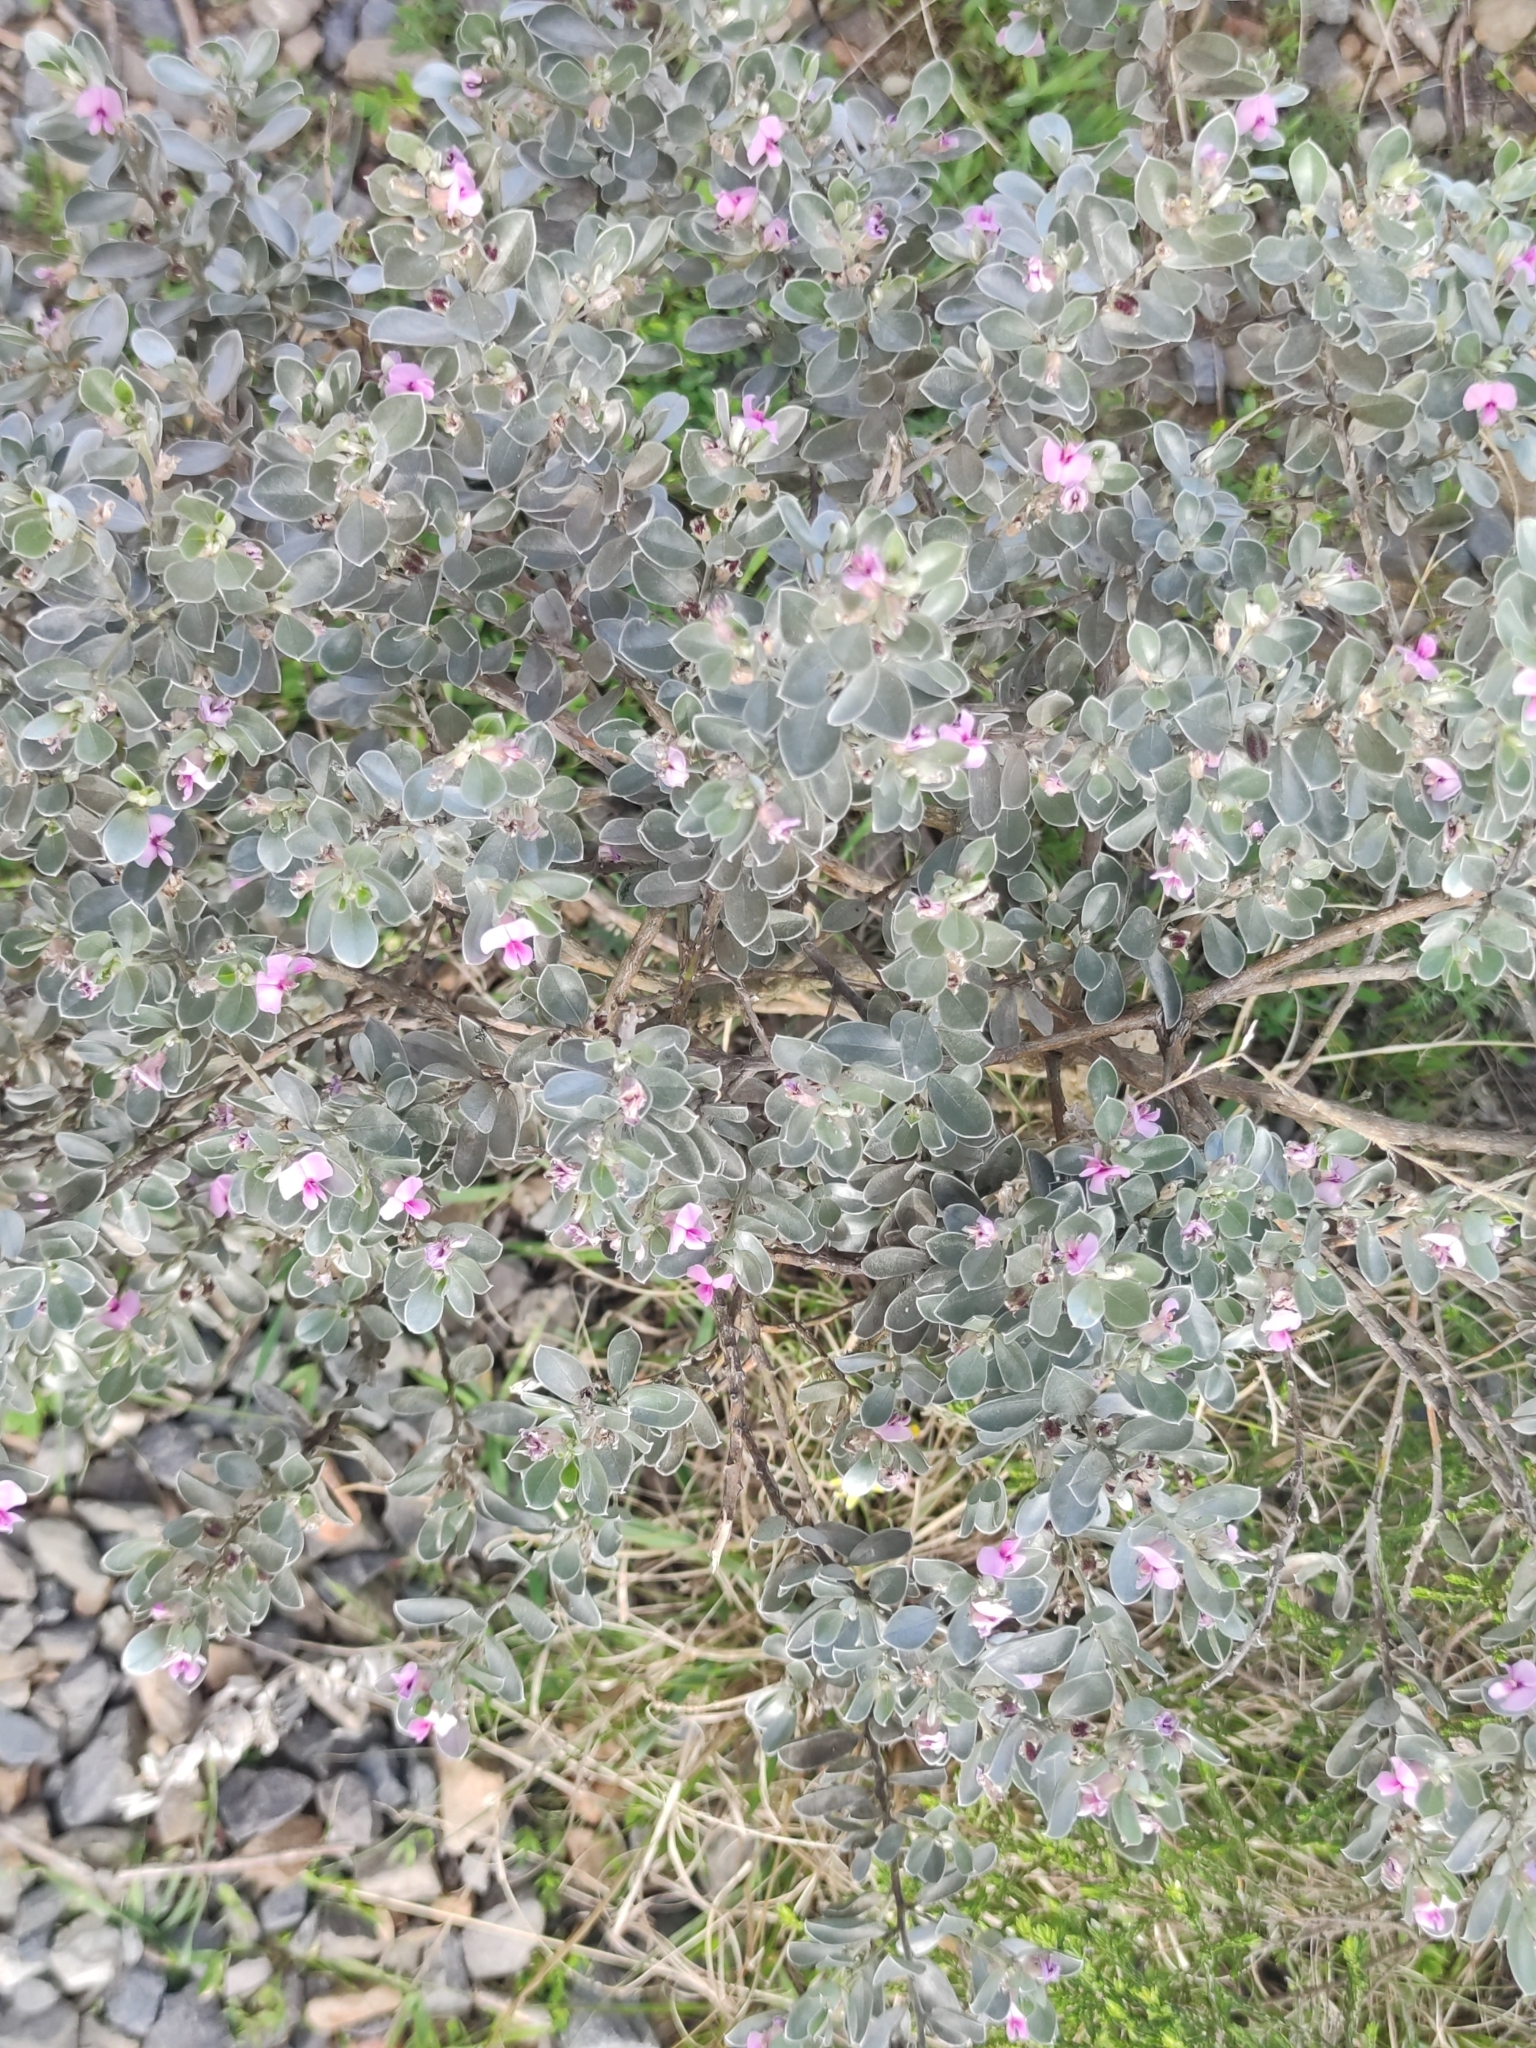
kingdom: Plantae
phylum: Tracheophyta
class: Magnoliopsida
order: Fabales
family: Fabaceae
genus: Podalyria
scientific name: Podalyria sericea
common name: Silver podalyria
